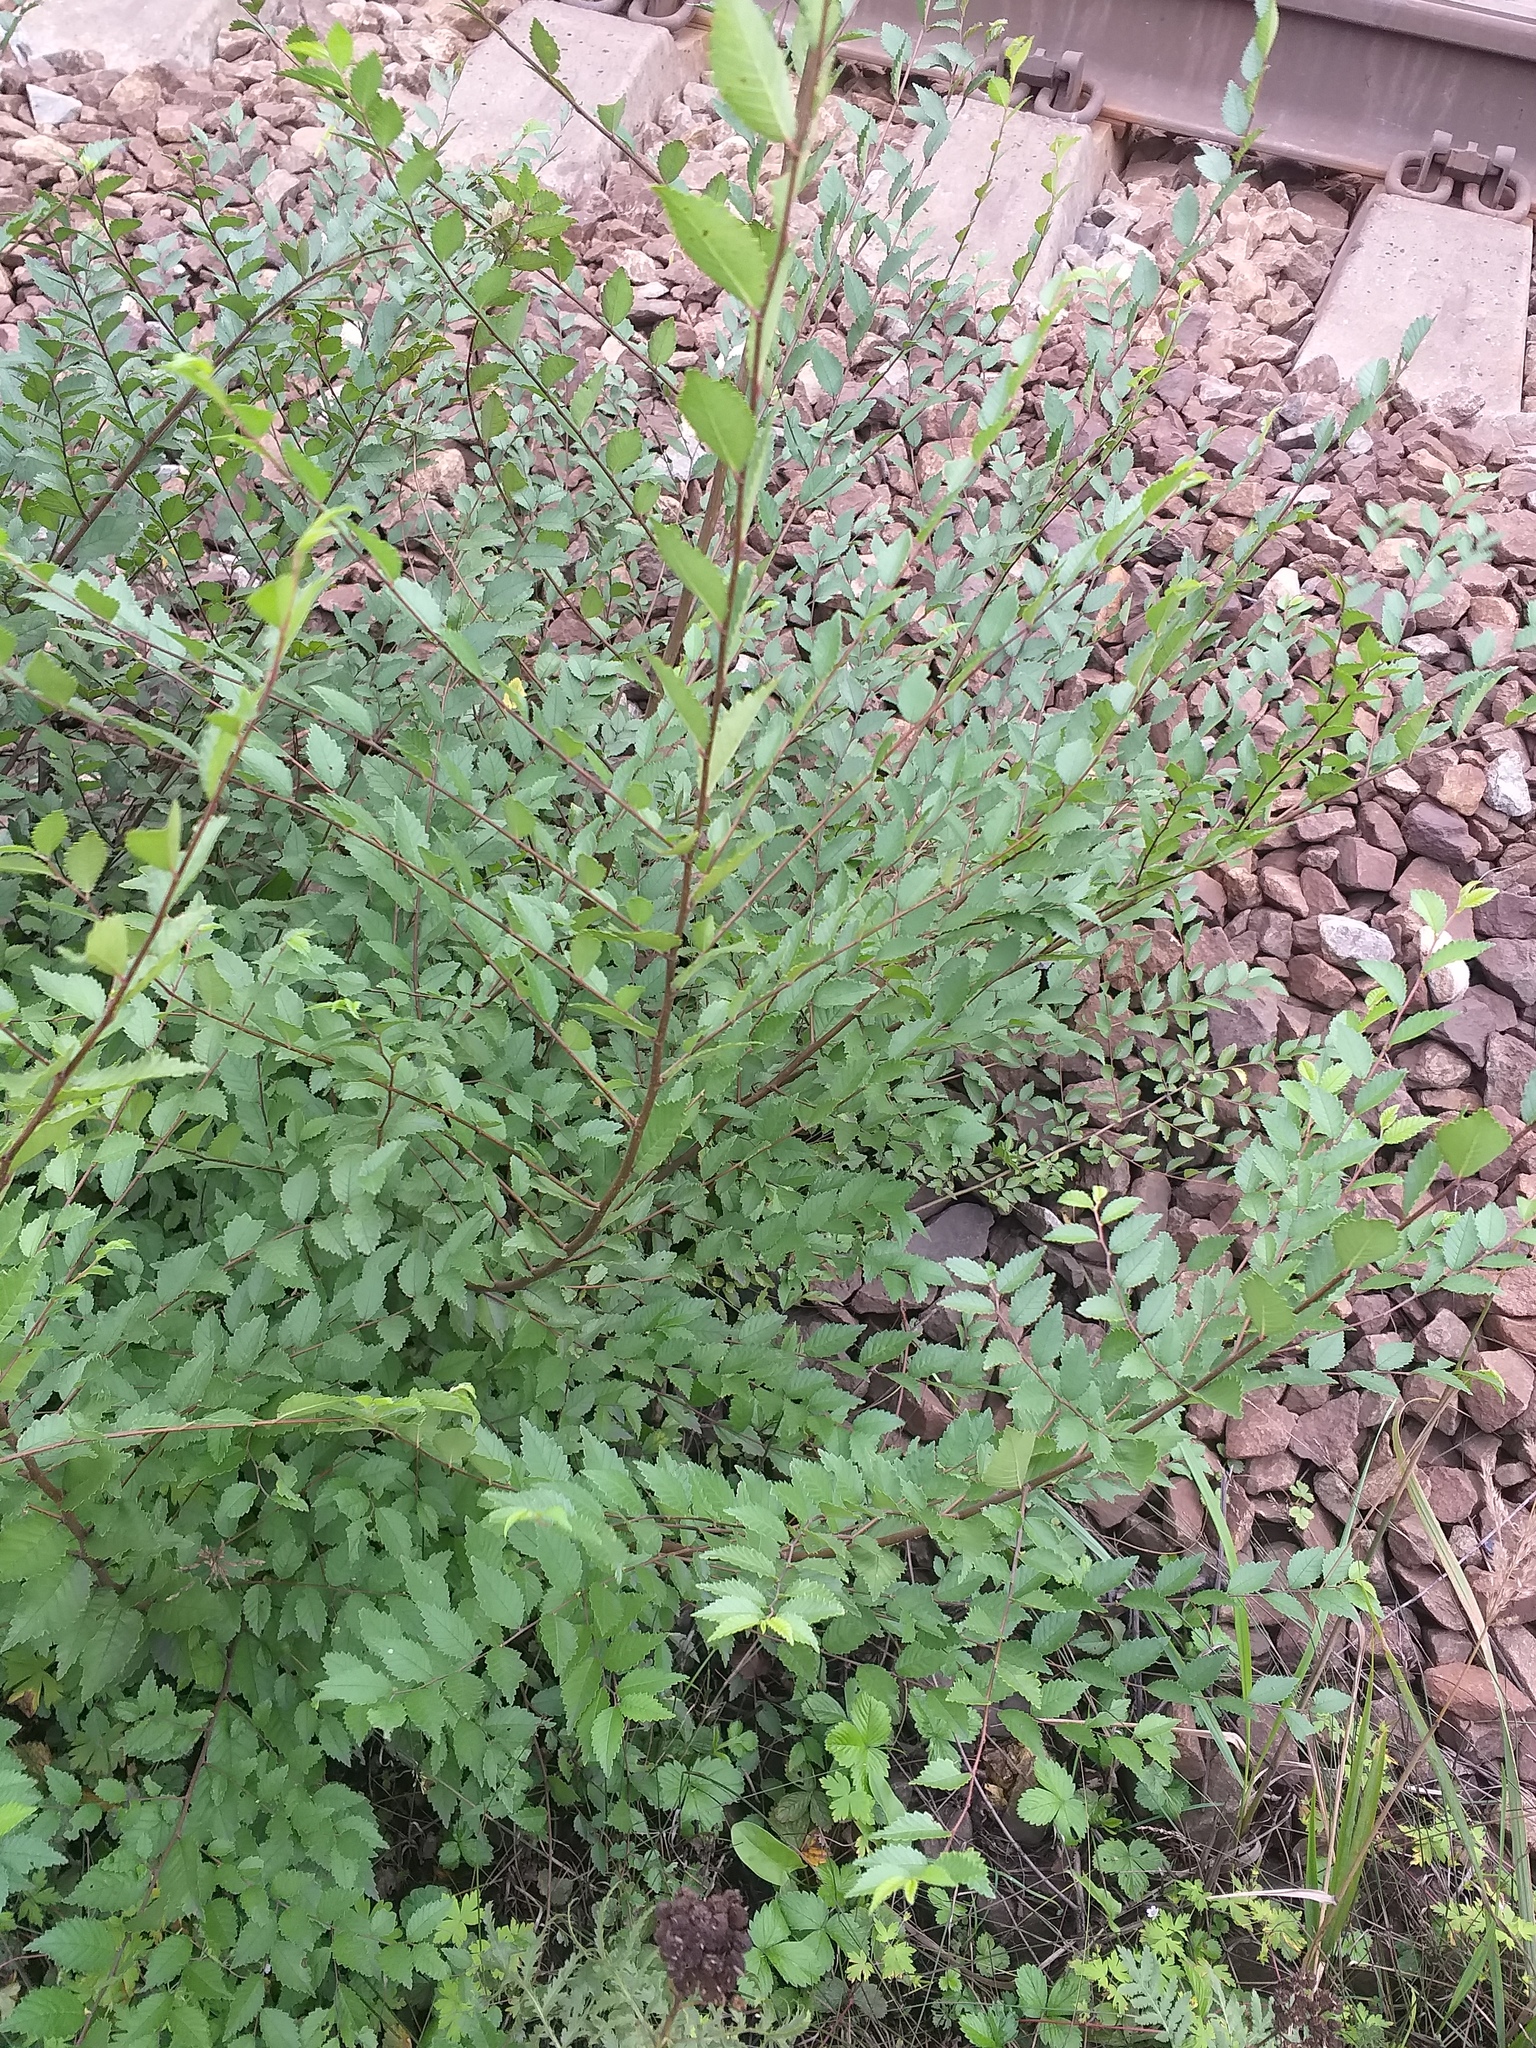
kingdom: Plantae
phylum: Tracheophyta
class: Magnoliopsida
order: Rosales
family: Ulmaceae
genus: Ulmus
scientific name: Ulmus pumila
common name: Siberian elm
